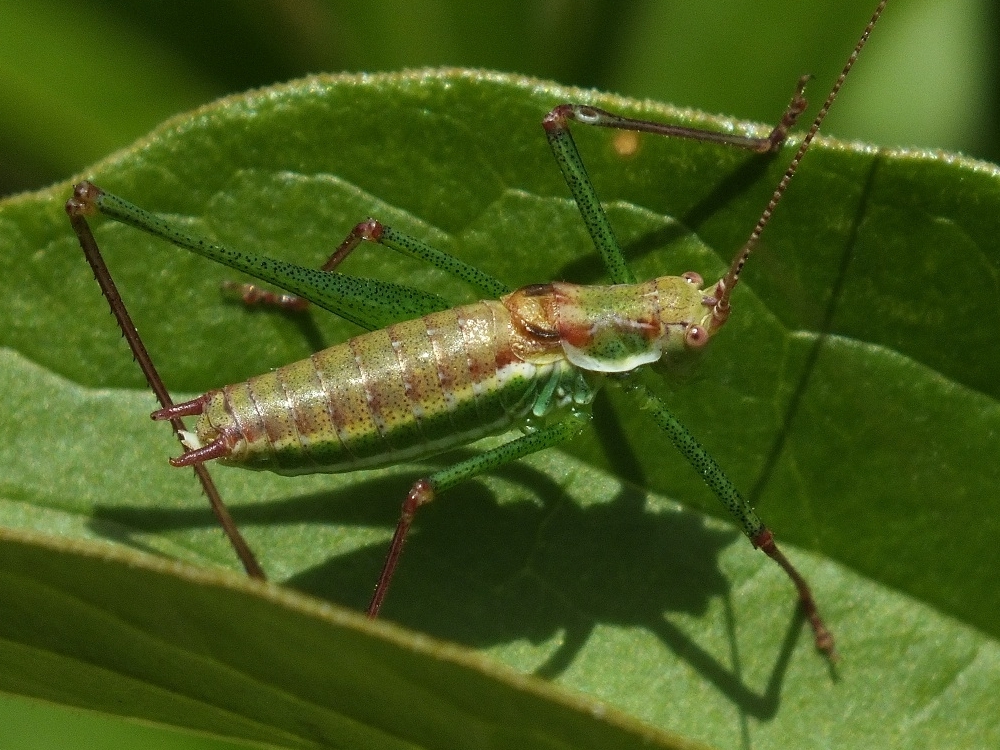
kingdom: Animalia
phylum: Arthropoda
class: Insecta
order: Orthoptera
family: Tettigoniidae
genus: Leptophyes
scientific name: Leptophyes albovittata
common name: Striped bush-cricket
